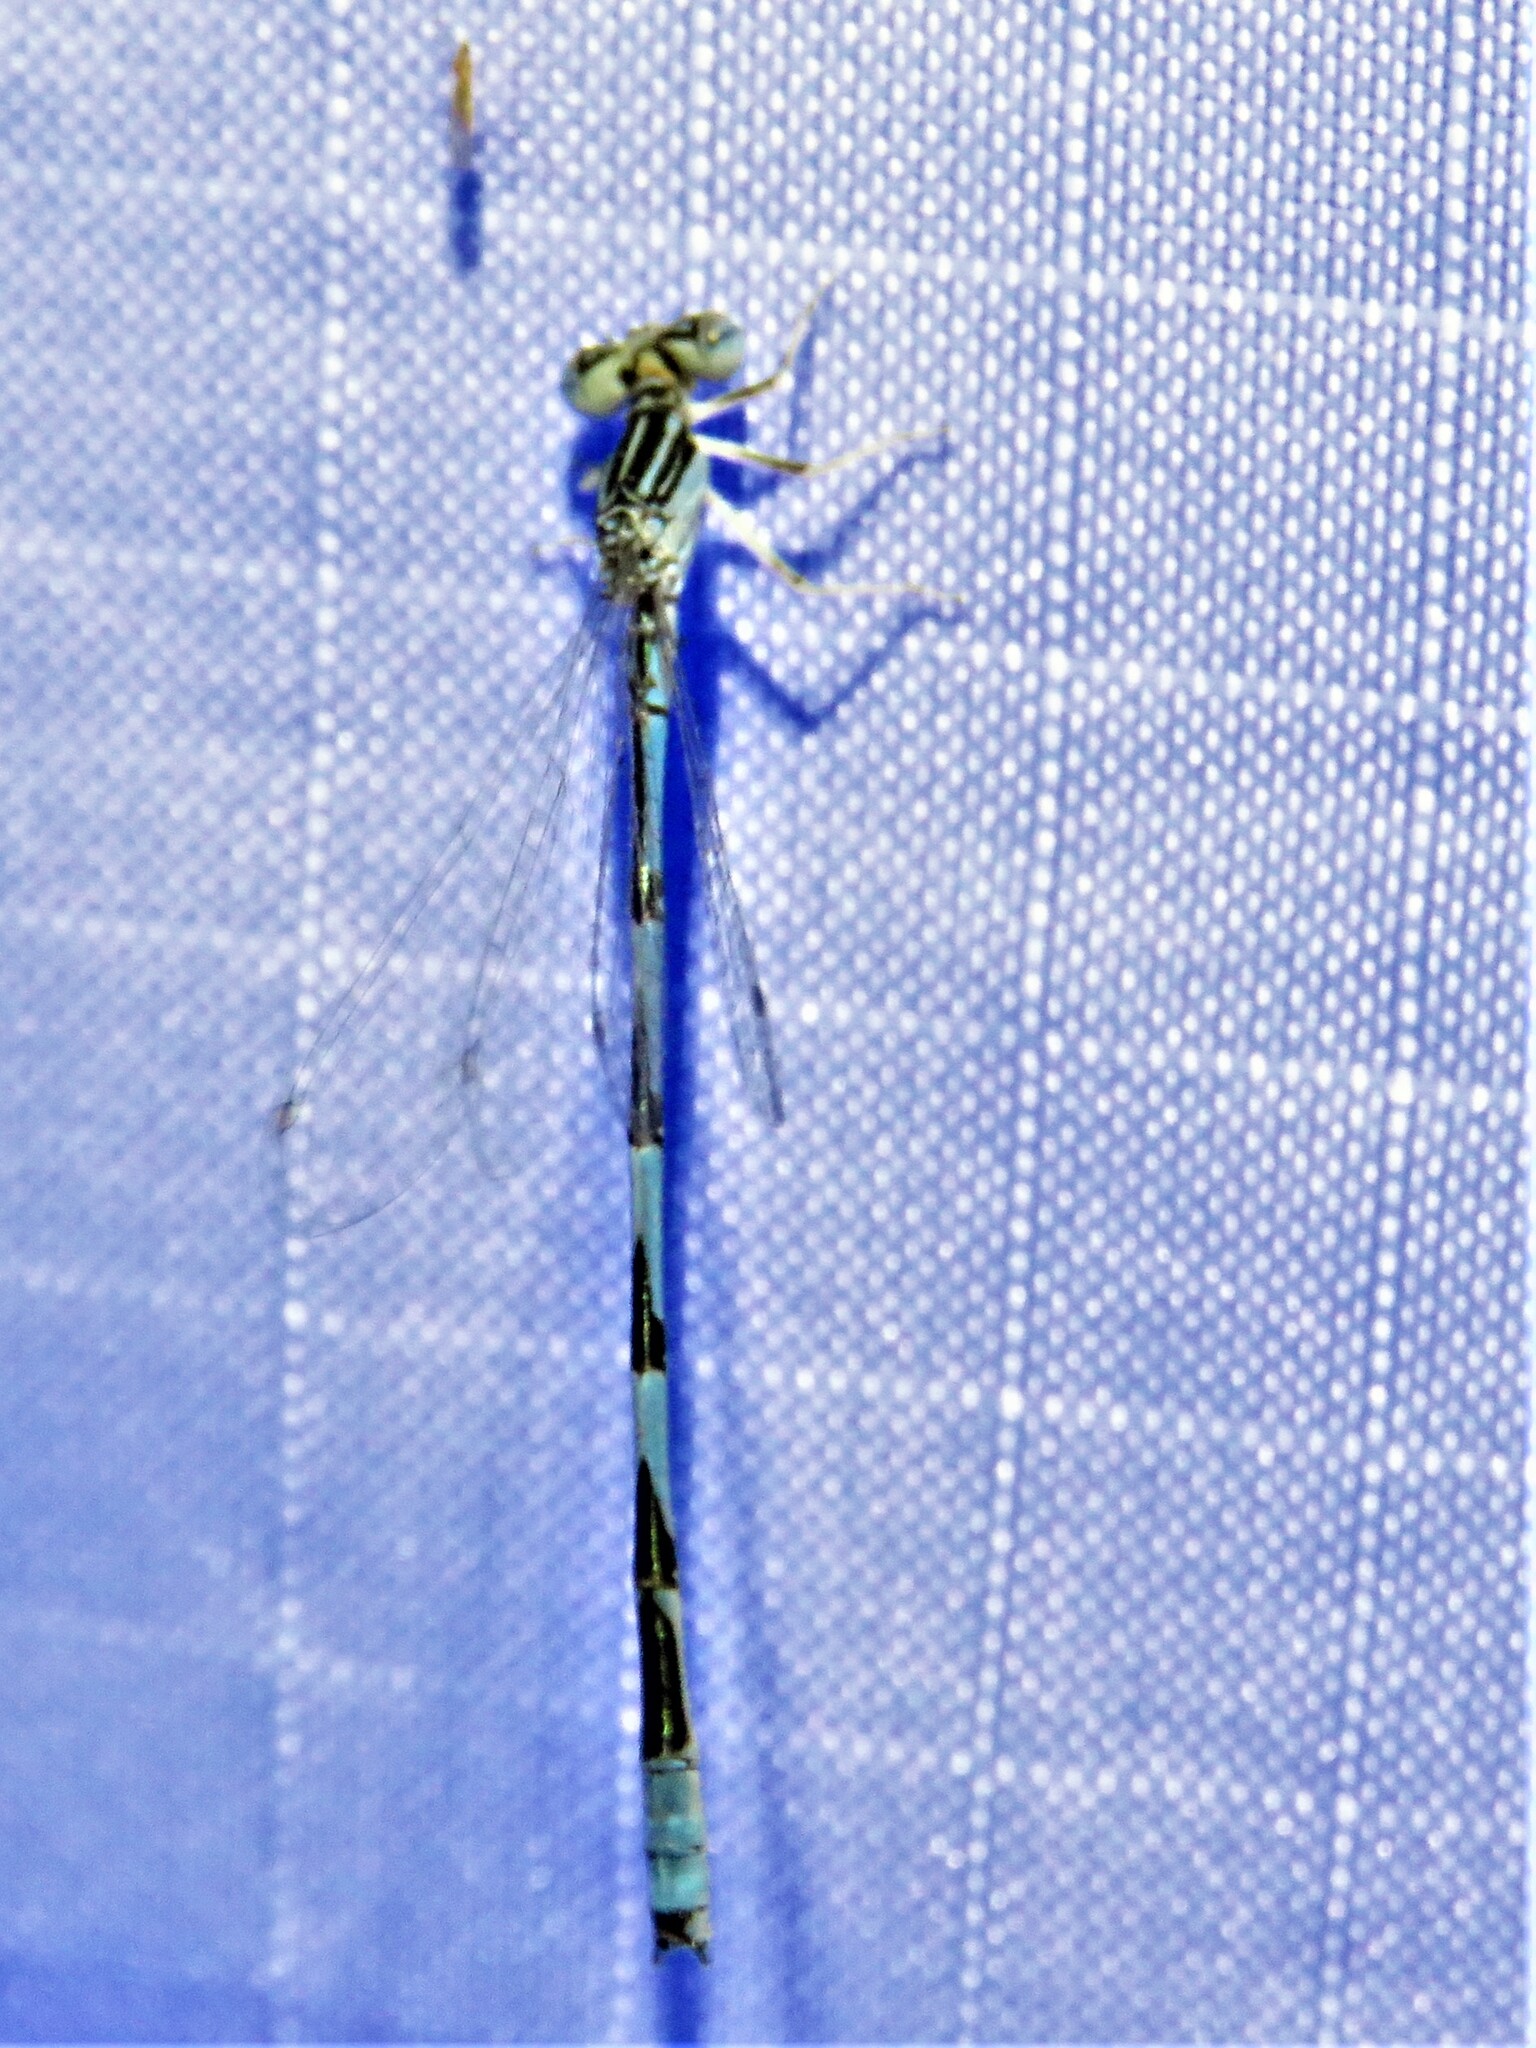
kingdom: Animalia
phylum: Arthropoda
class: Insecta
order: Odonata
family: Coenagrionidae
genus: Enallagma
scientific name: Enallagma basidens
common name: Double-striped bluet
